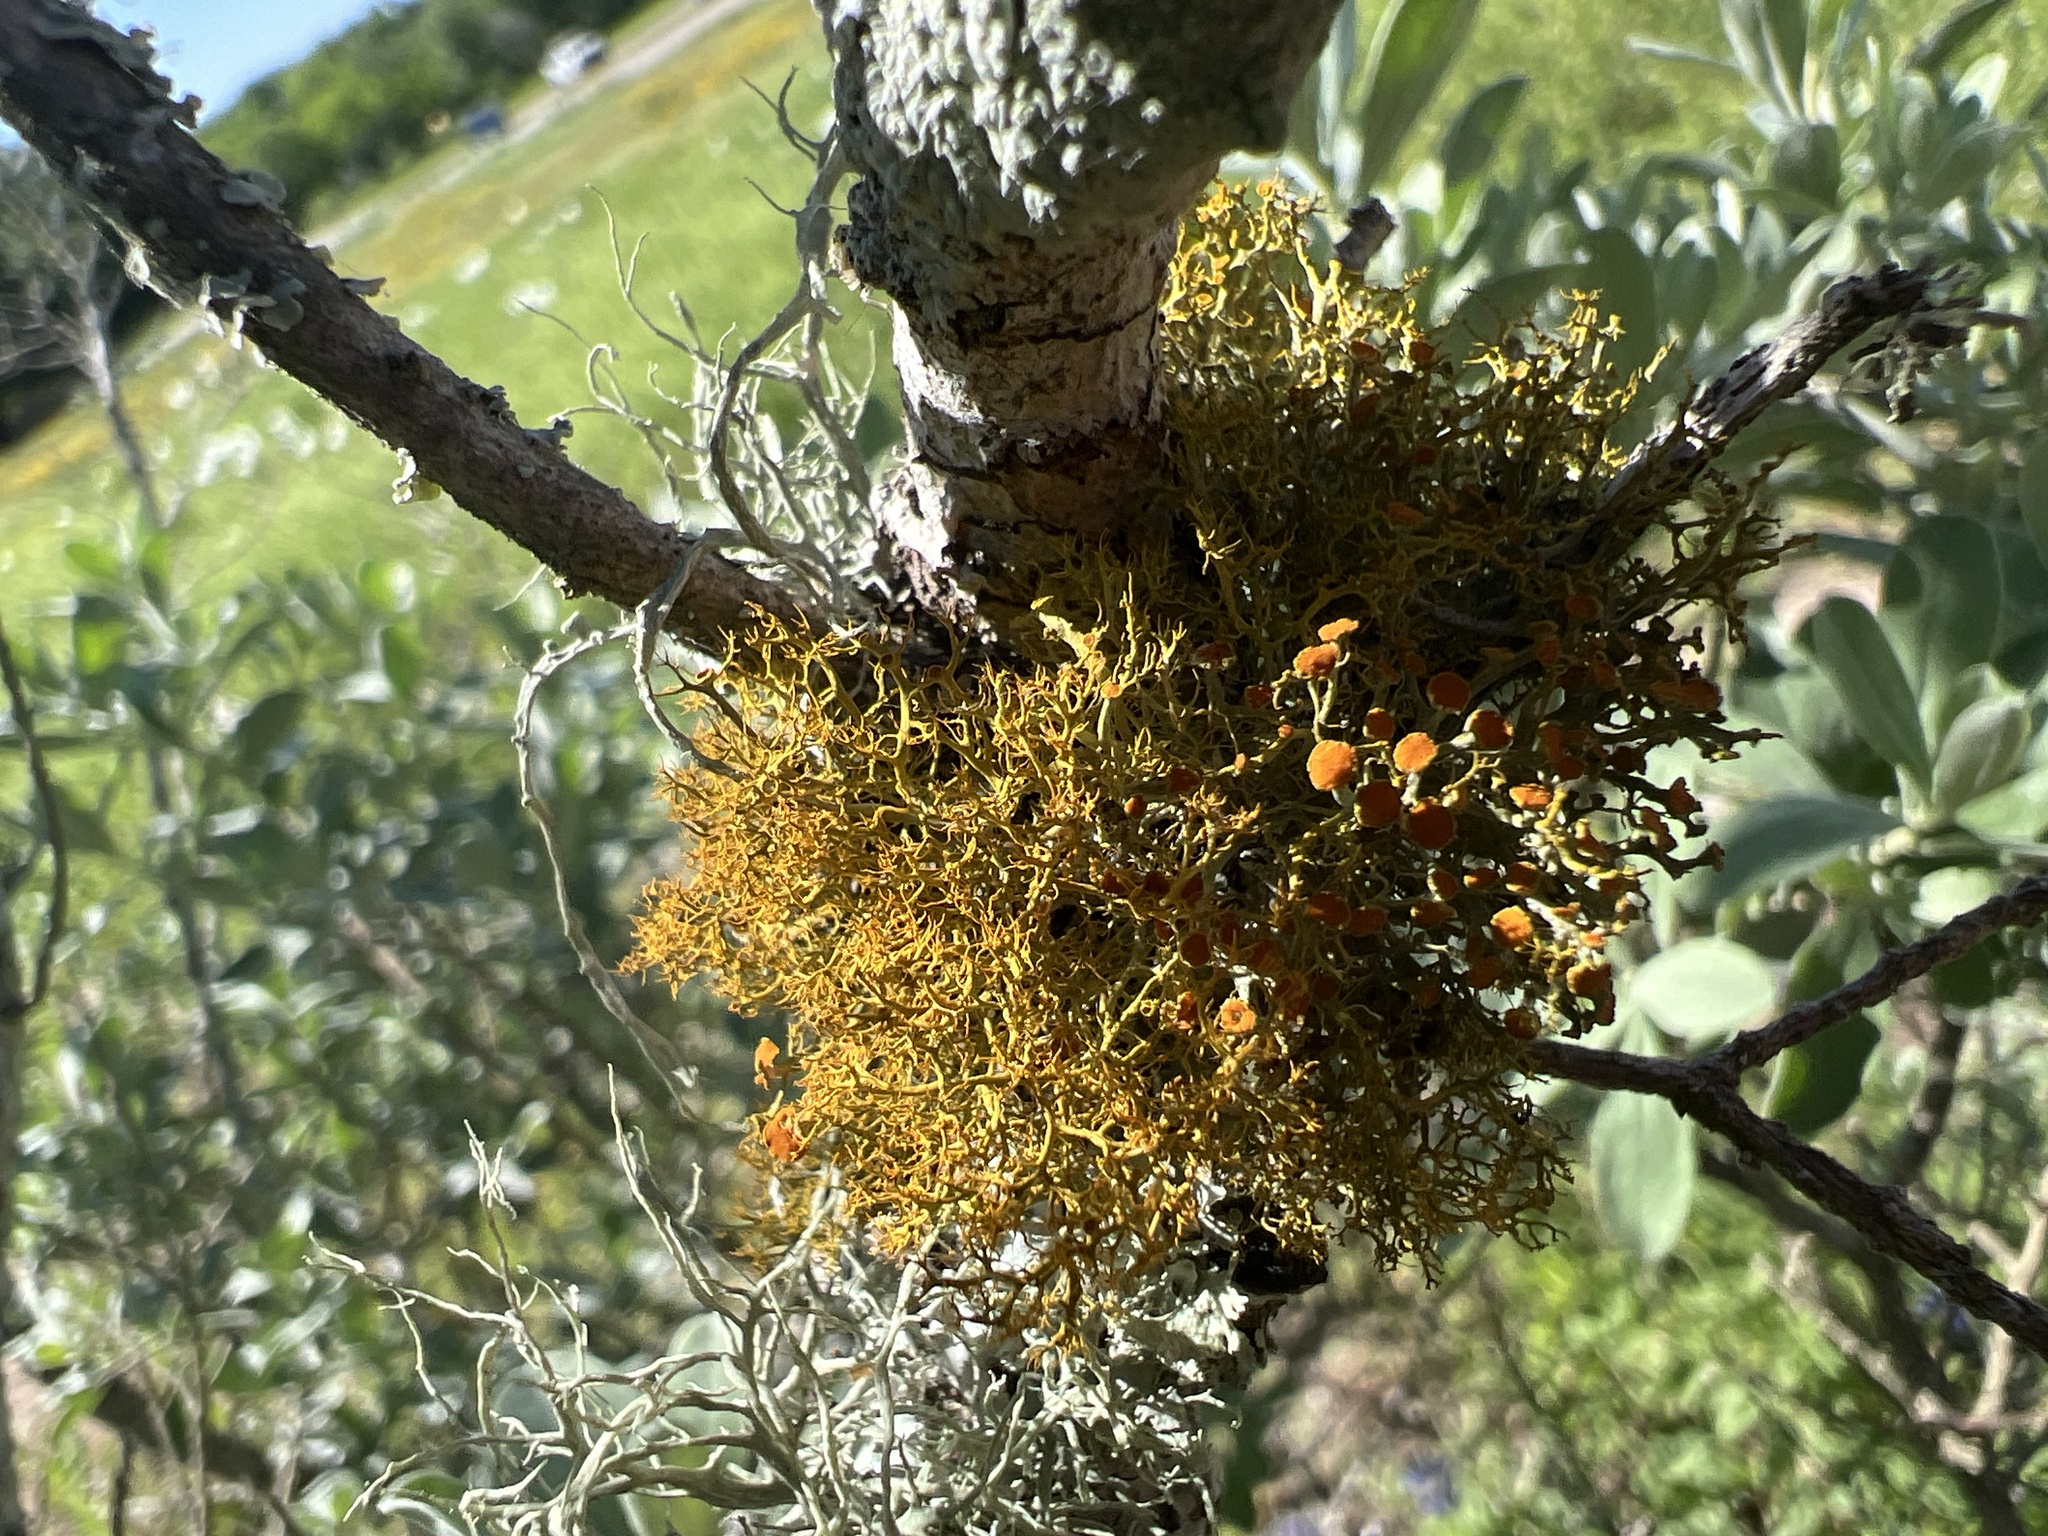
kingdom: Fungi
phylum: Ascomycota
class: Lecanoromycetes
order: Teloschistales
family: Teloschistaceae
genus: Teloschistes
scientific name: Teloschistes exilis
